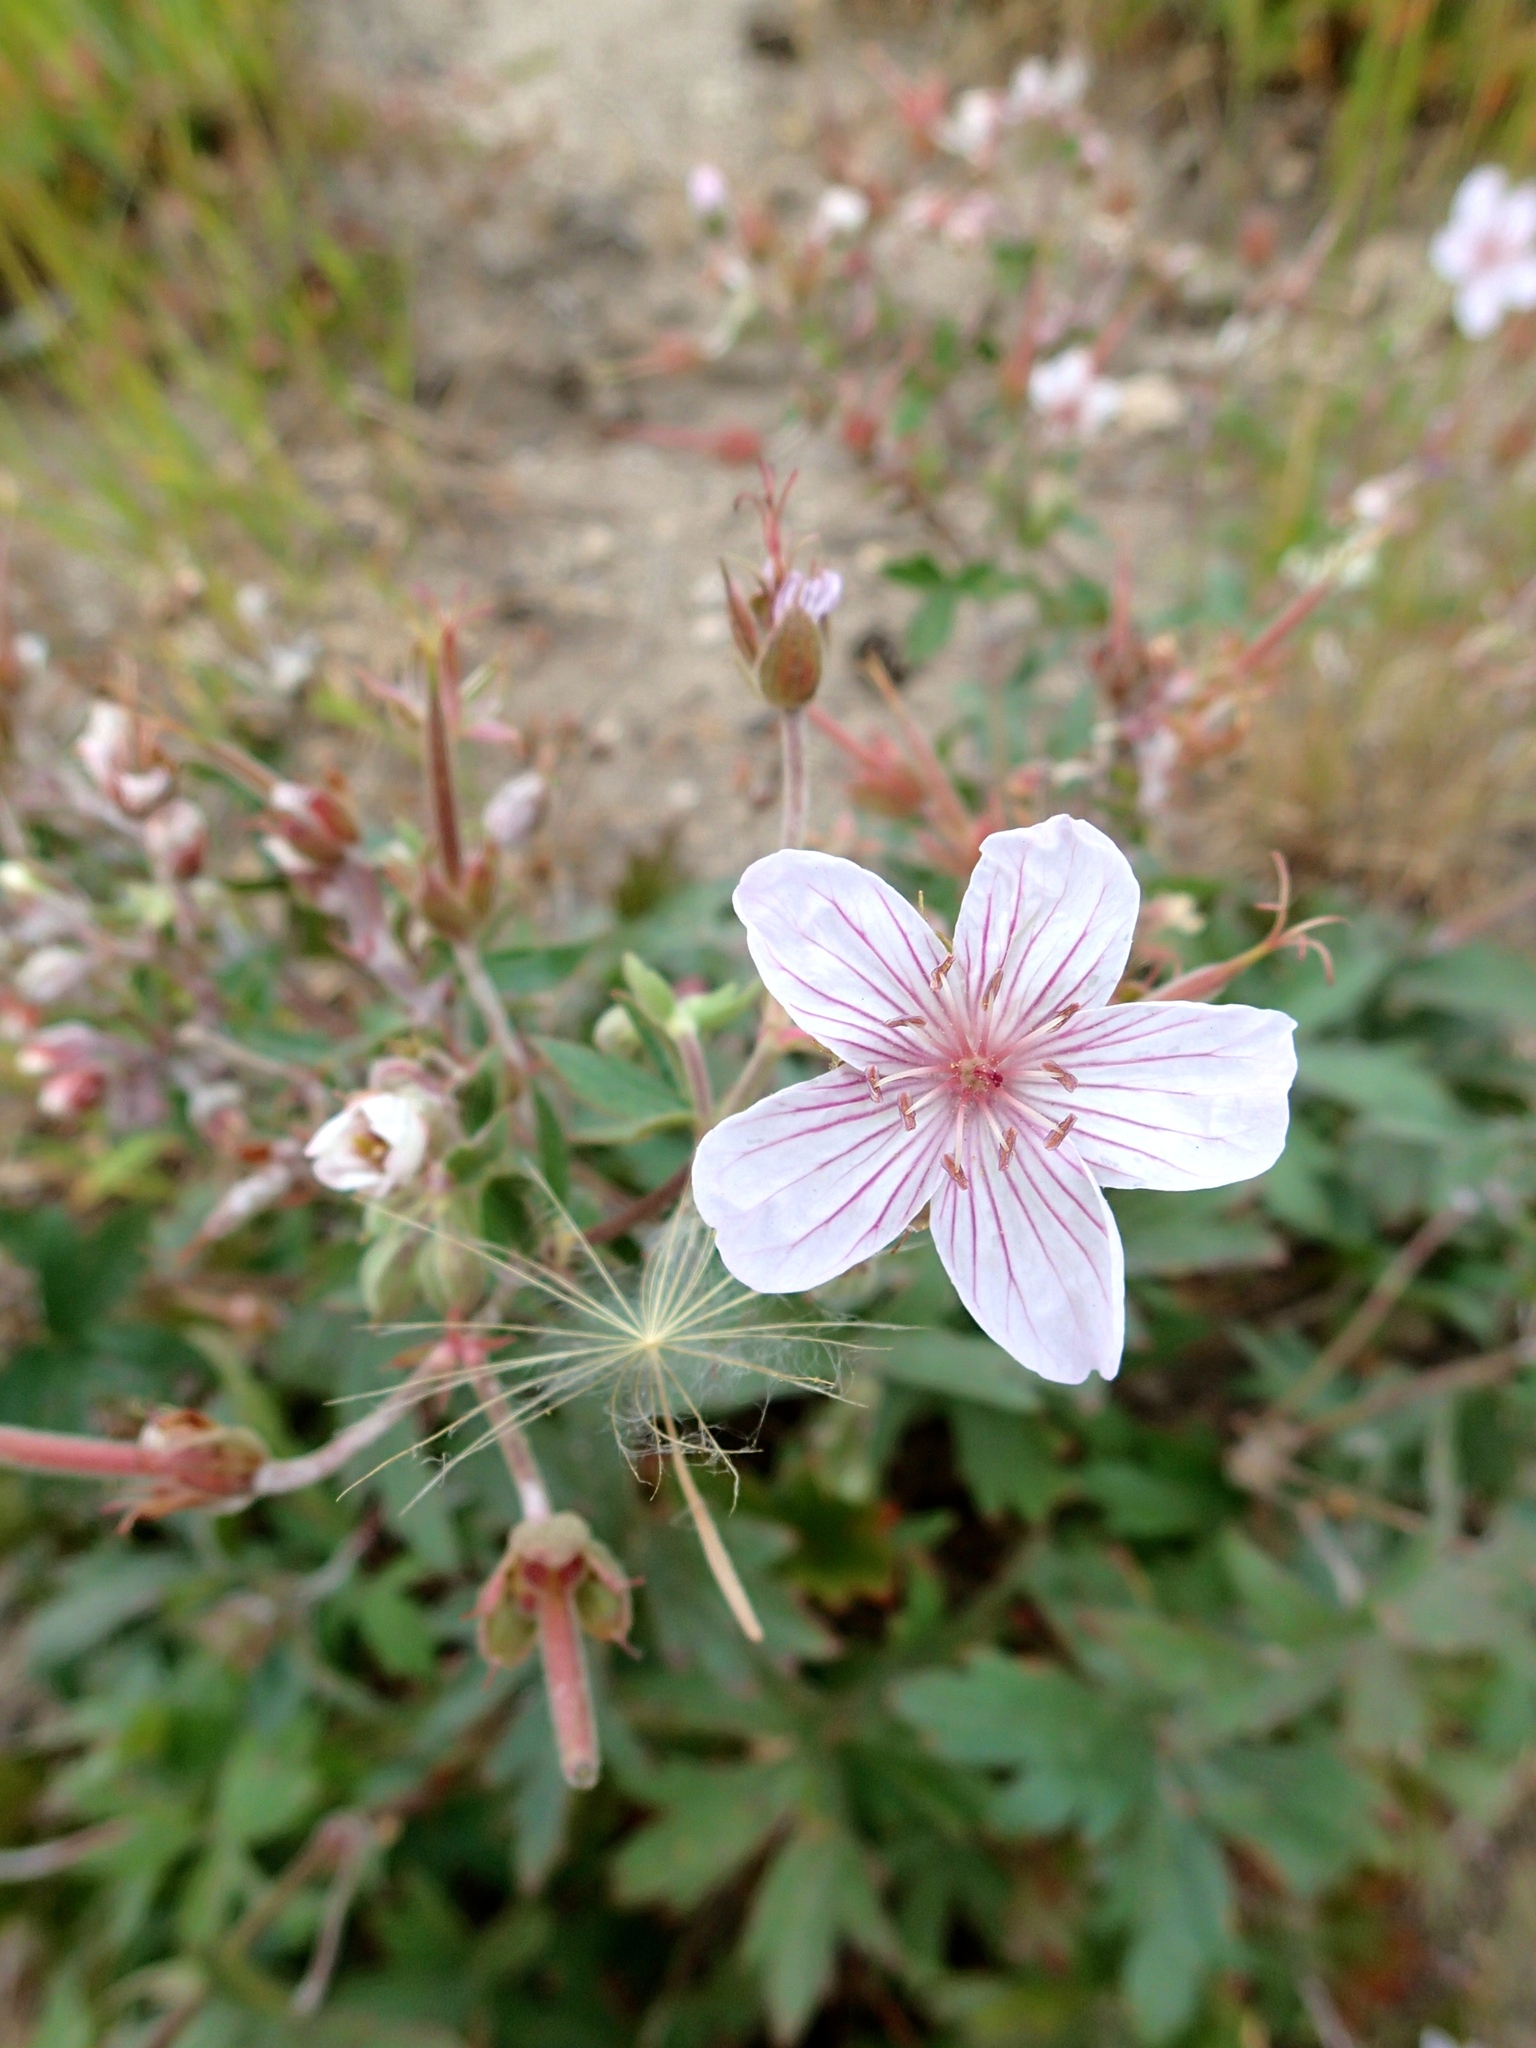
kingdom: Plantae
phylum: Tracheophyta
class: Magnoliopsida
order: Geraniales
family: Geraniaceae
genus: Geranium
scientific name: Geranium richardsonii
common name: Richardson's crane's-bill
